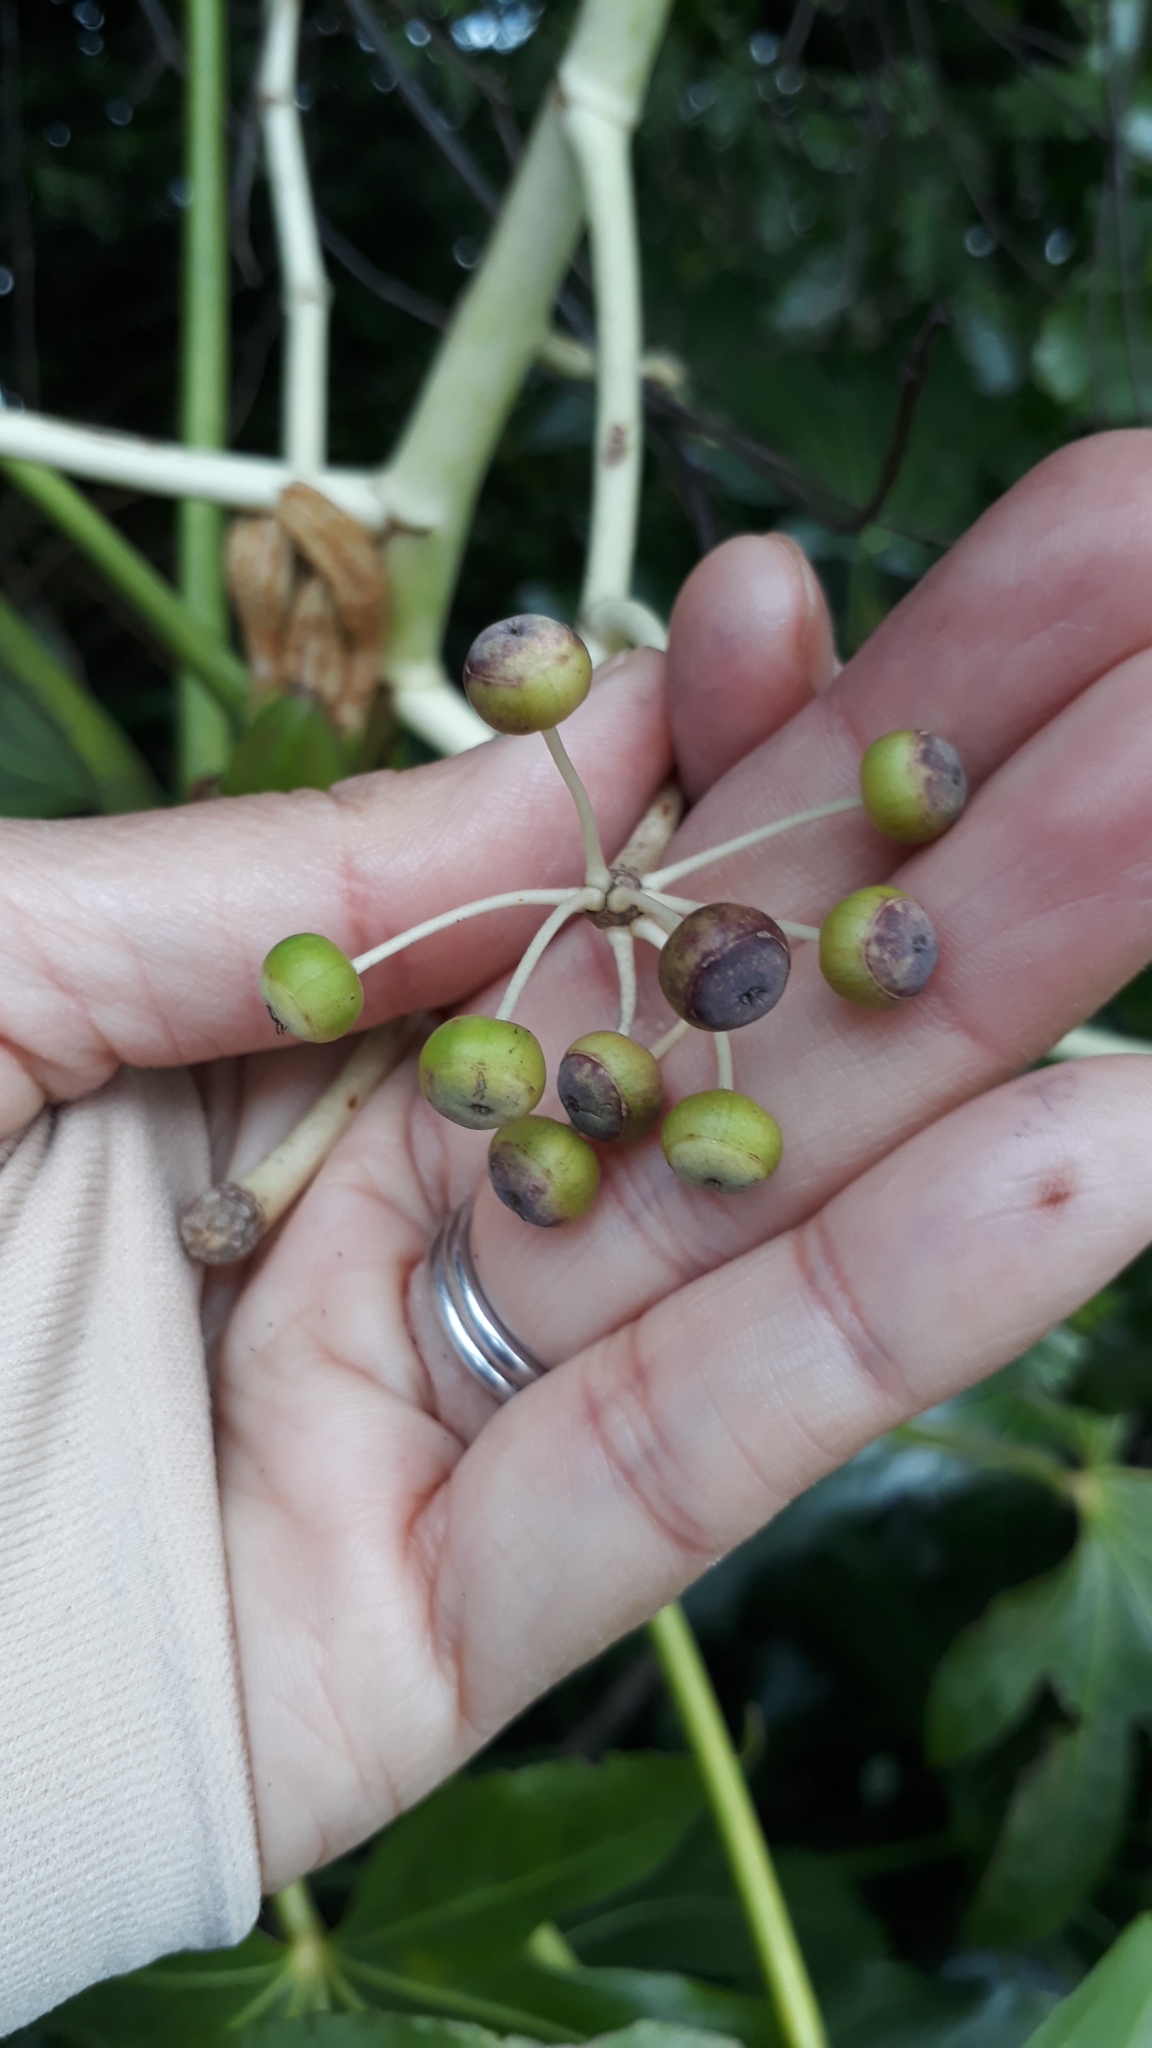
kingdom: Plantae
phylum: Tracheophyta
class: Magnoliopsida
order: Apiales
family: Araliaceae
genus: Fatsia
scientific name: Fatsia japonica
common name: Fatsia
